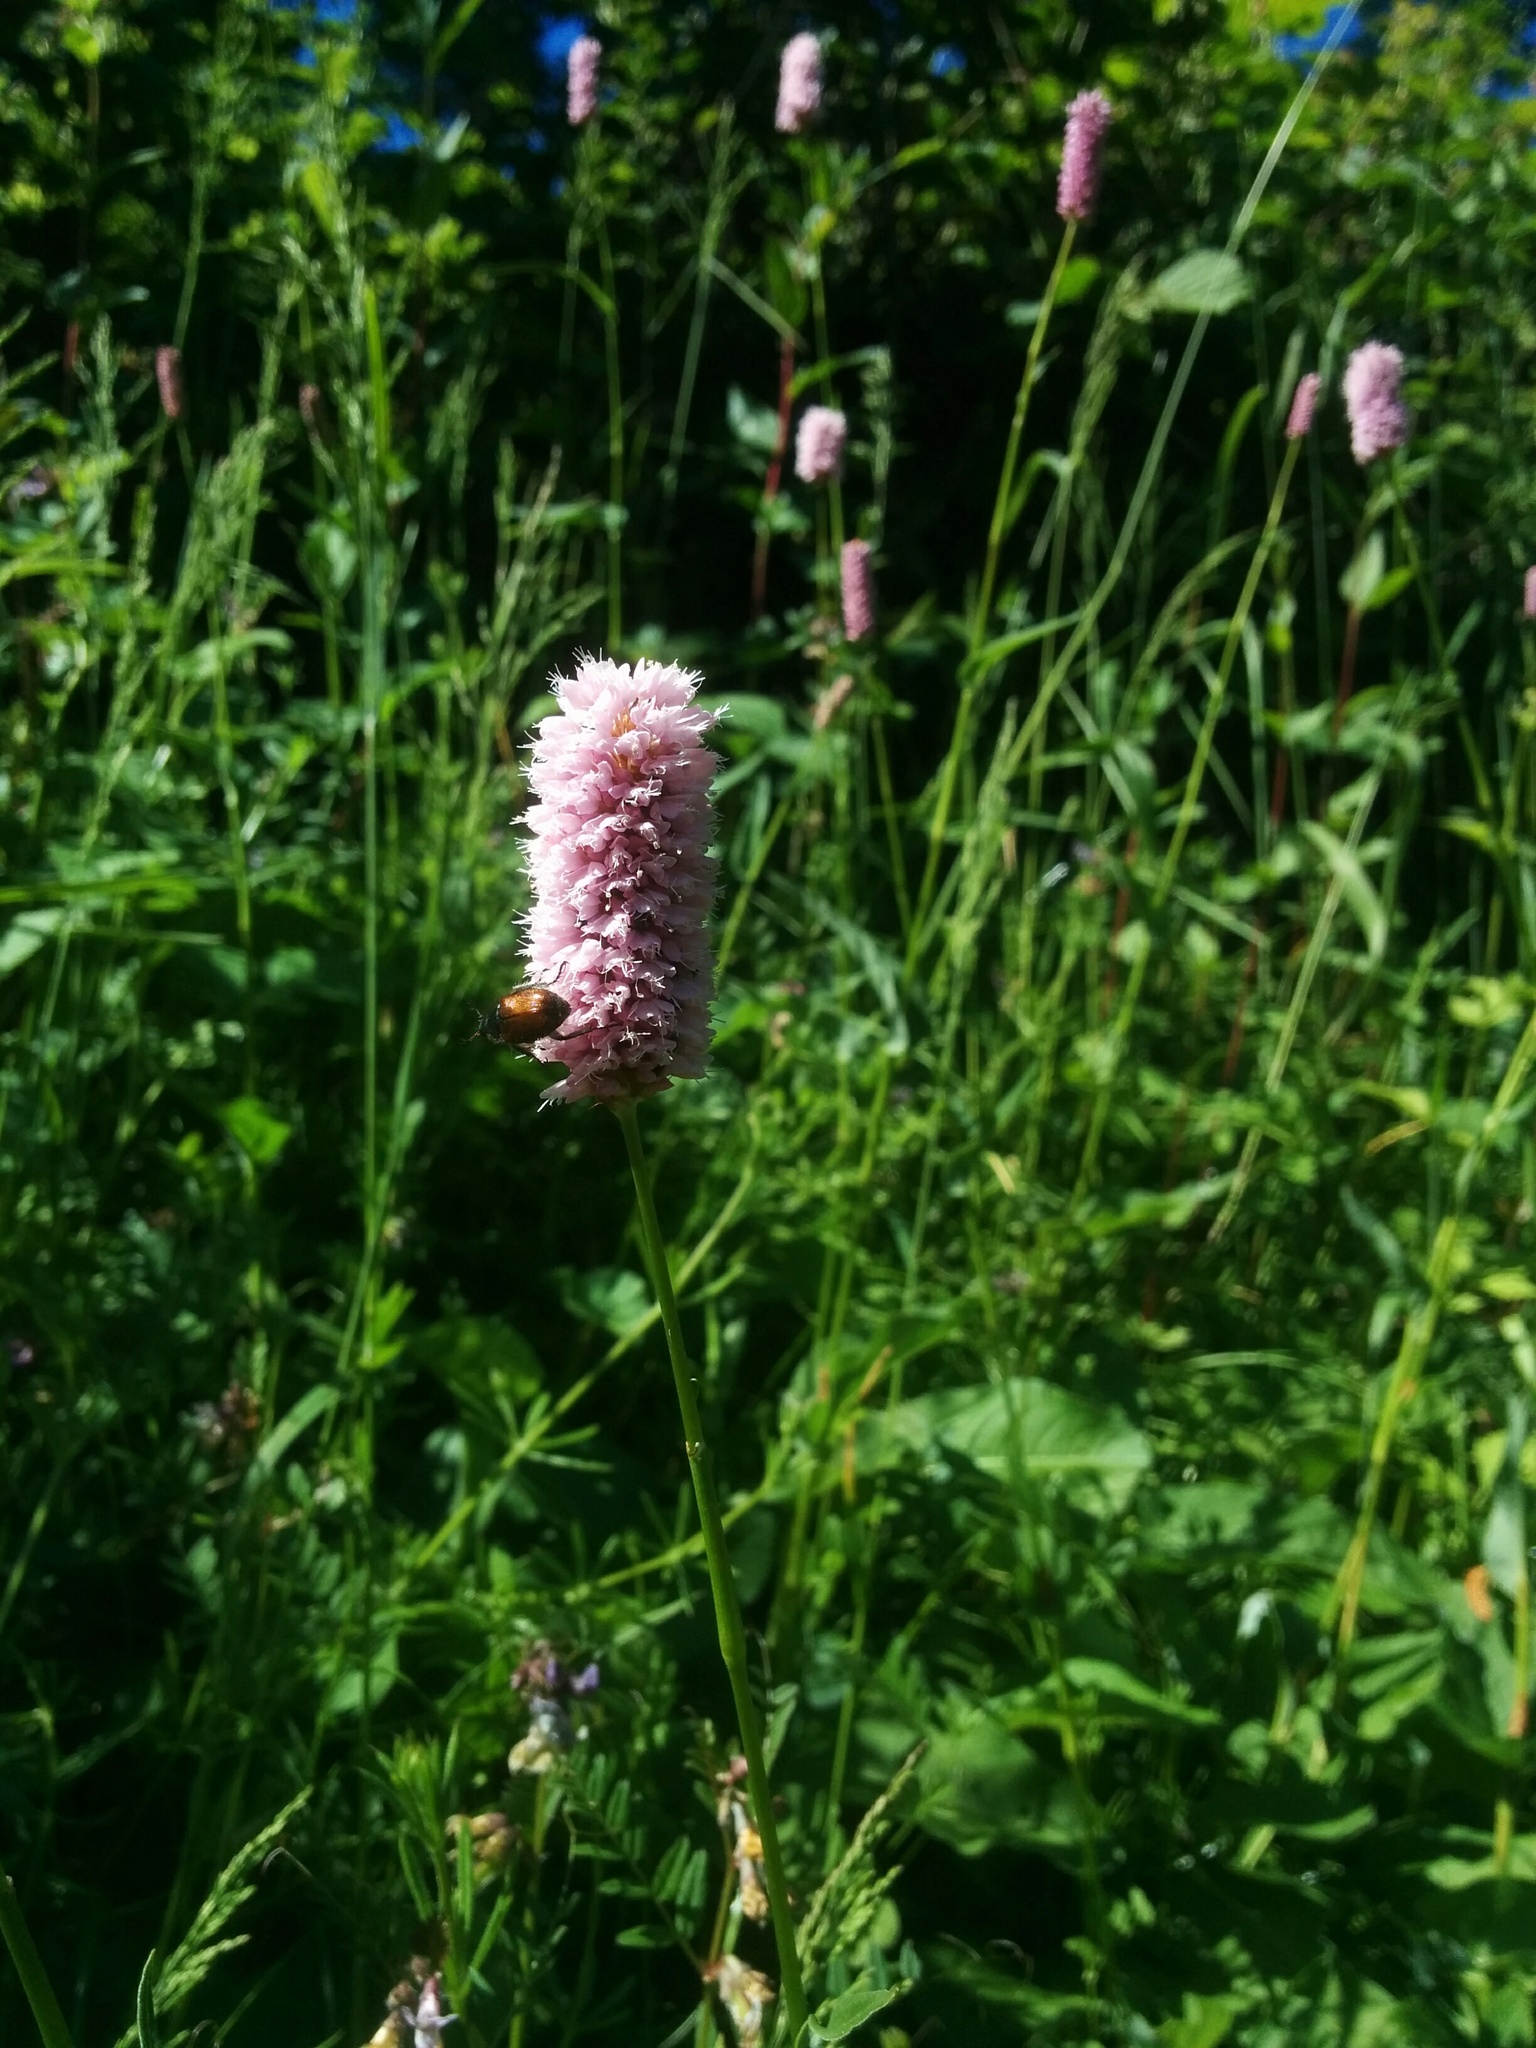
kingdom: Plantae
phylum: Tracheophyta
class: Magnoliopsida
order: Caryophyllales
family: Polygonaceae
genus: Bistorta
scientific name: Bistorta officinalis
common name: Common bistort
